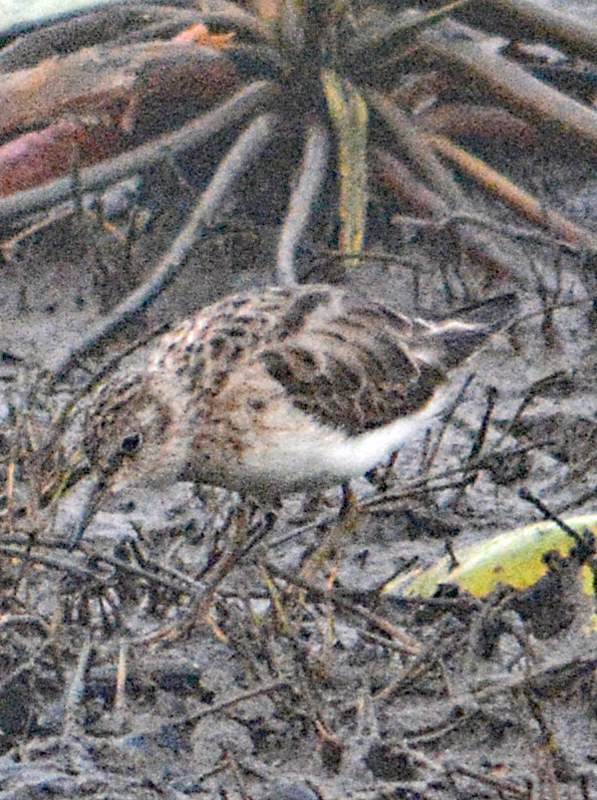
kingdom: Animalia
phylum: Chordata
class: Aves
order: Charadriiformes
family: Scolopacidae
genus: Calidris
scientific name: Calidris minutilla
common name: Least sandpiper
